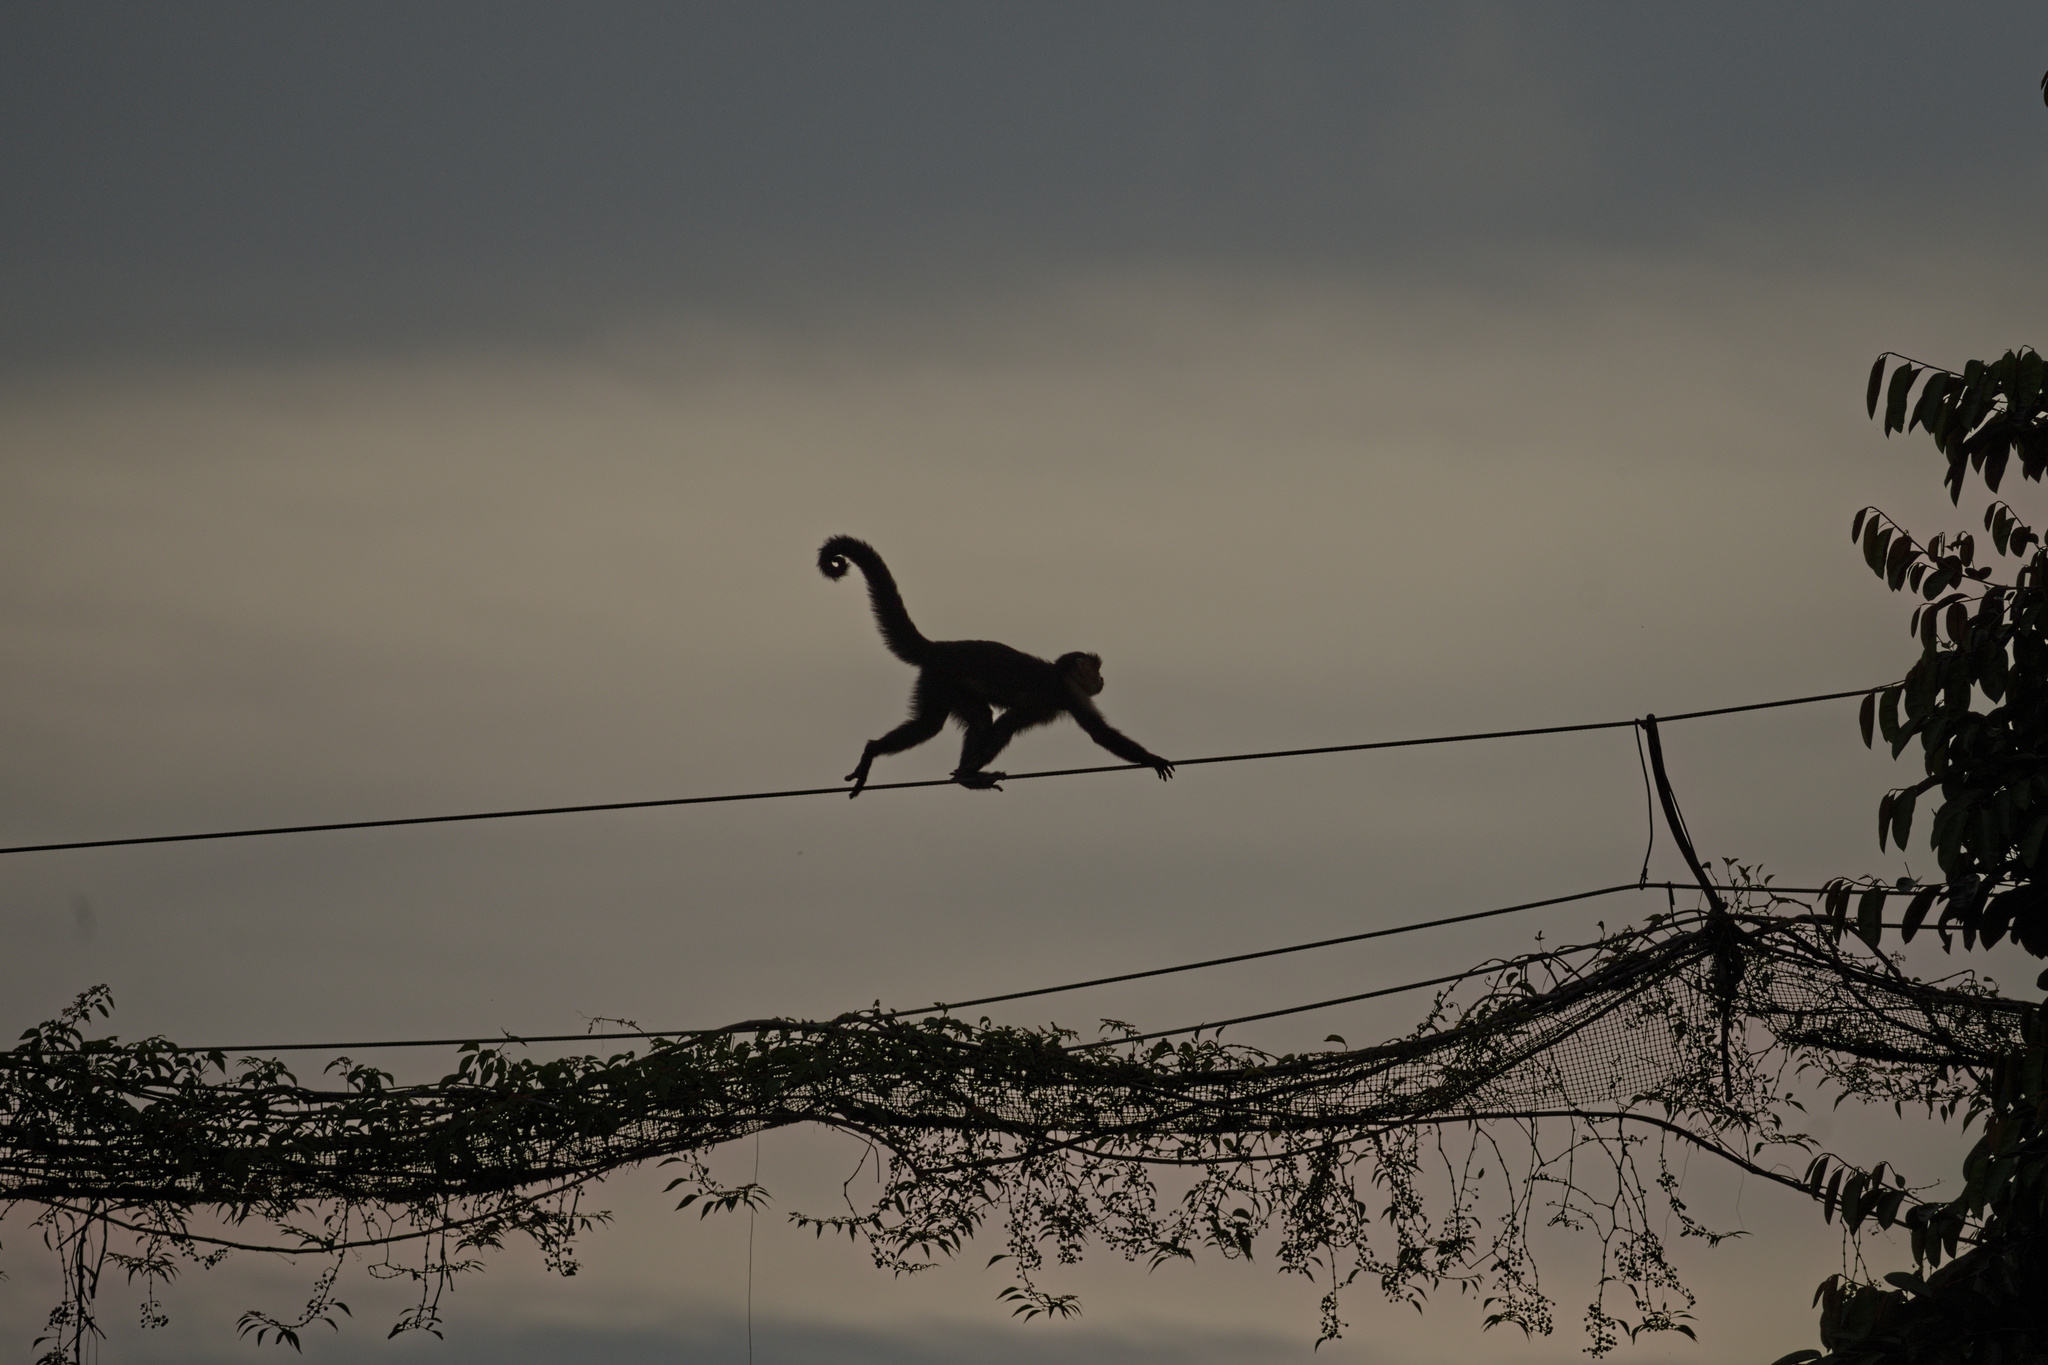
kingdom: Animalia
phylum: Chordata
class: Mammalia
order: Primates
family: Cebidae
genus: Cebus
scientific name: Cebus imitator
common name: Panamanian white-faced capuchin
